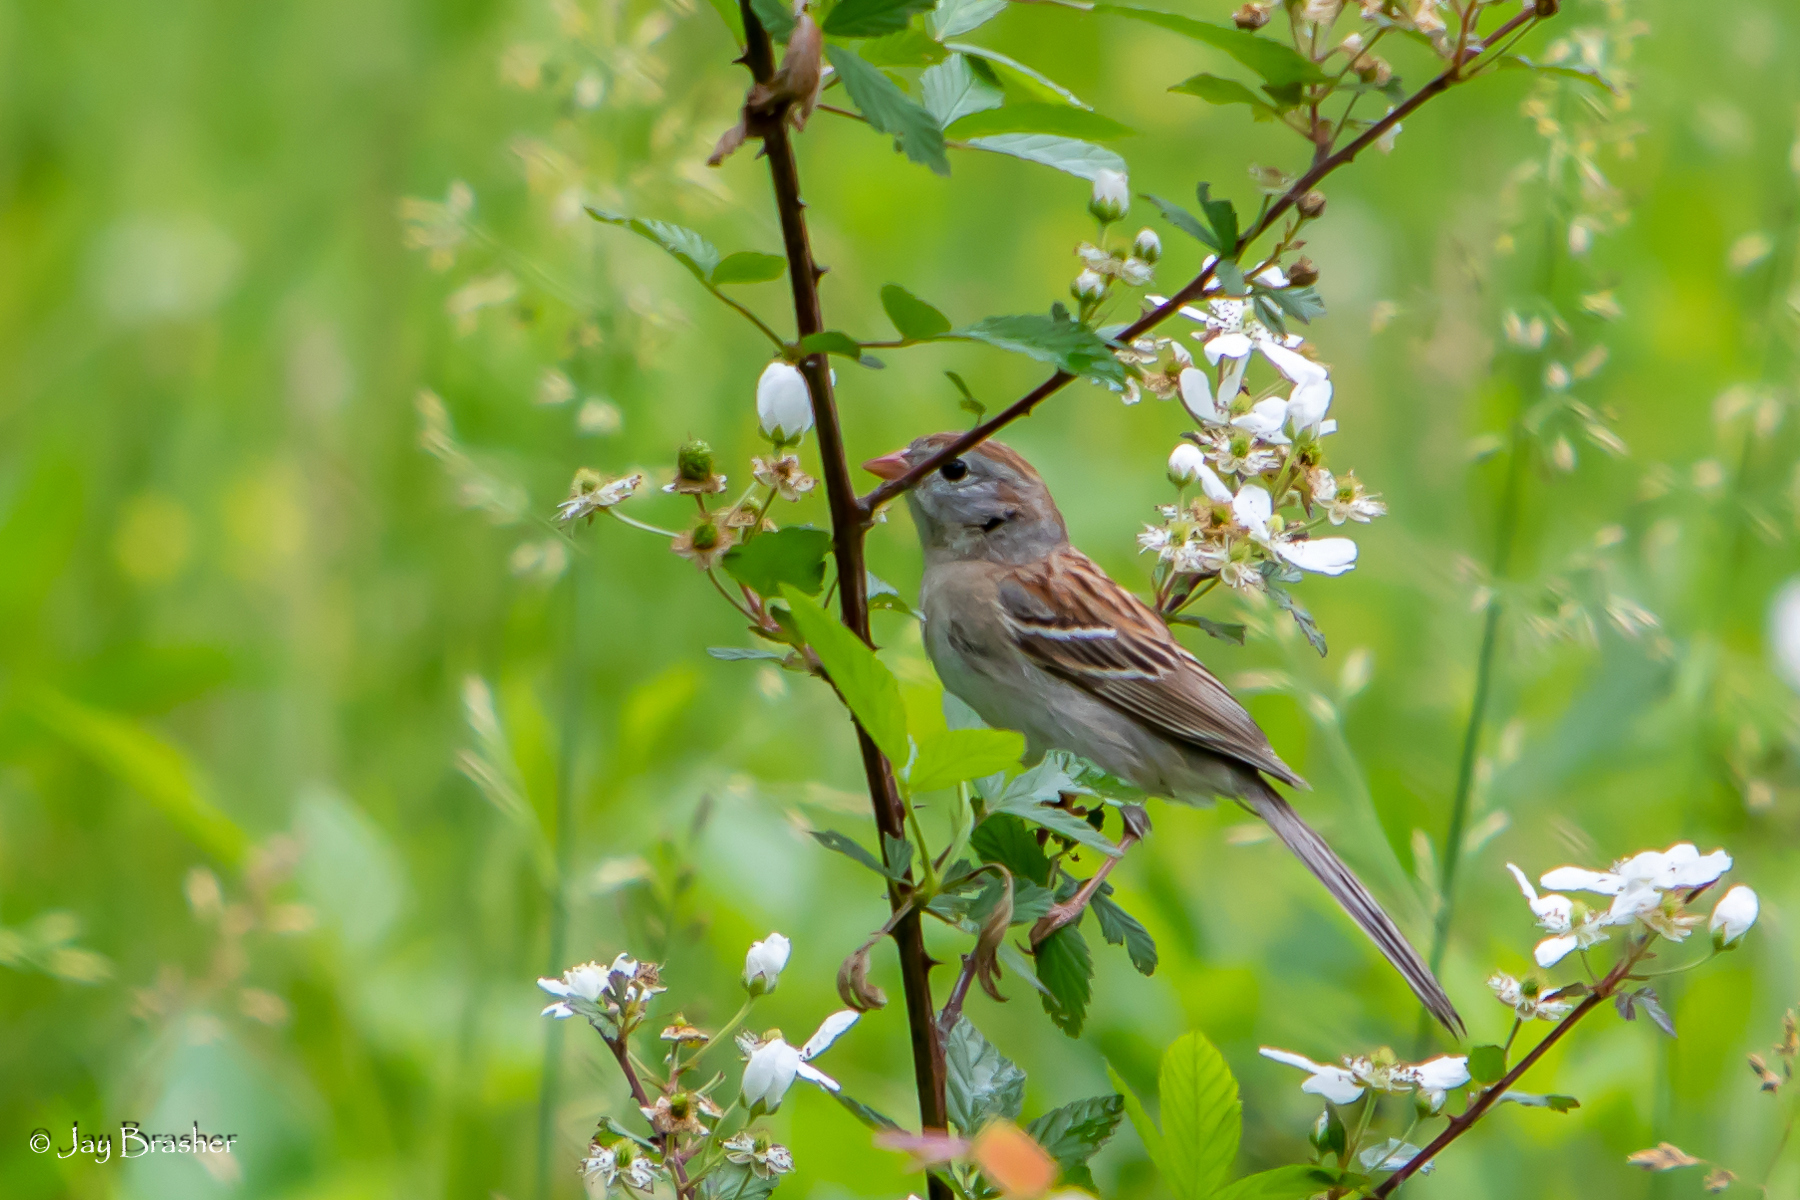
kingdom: Animalia
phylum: Chordata
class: Aves
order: Passeriformes
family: Passerellidae
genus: Spizella
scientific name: Spizella pusilla
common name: Field sparrow
